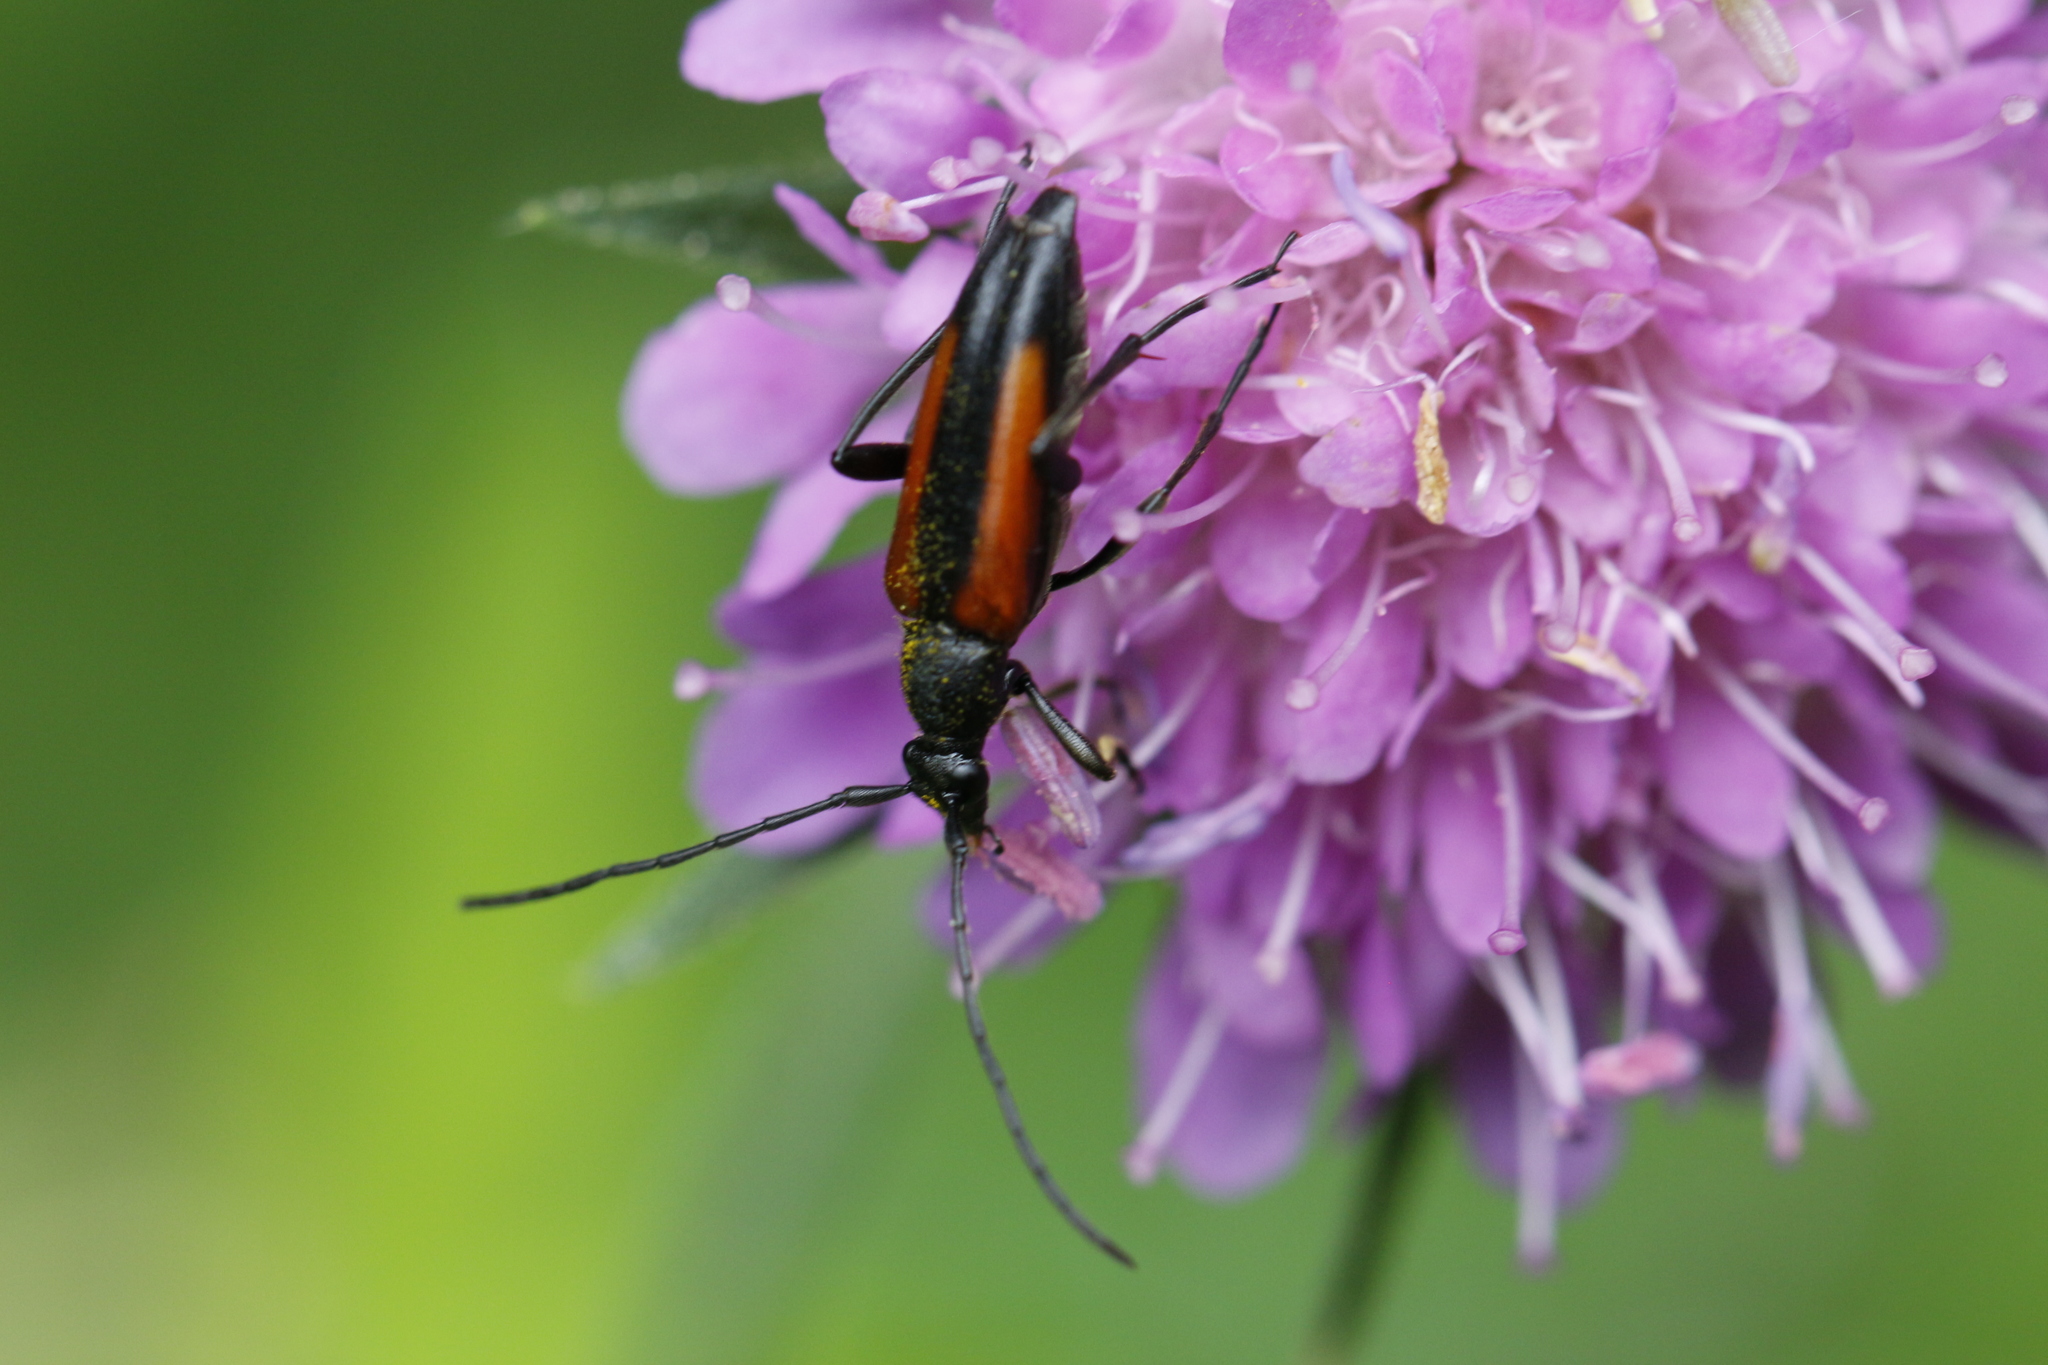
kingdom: Animalia
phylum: Arthropoda
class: Insecta
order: Coleoptera
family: Cerambycidae
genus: Stenurella
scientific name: Stenurella melanura
